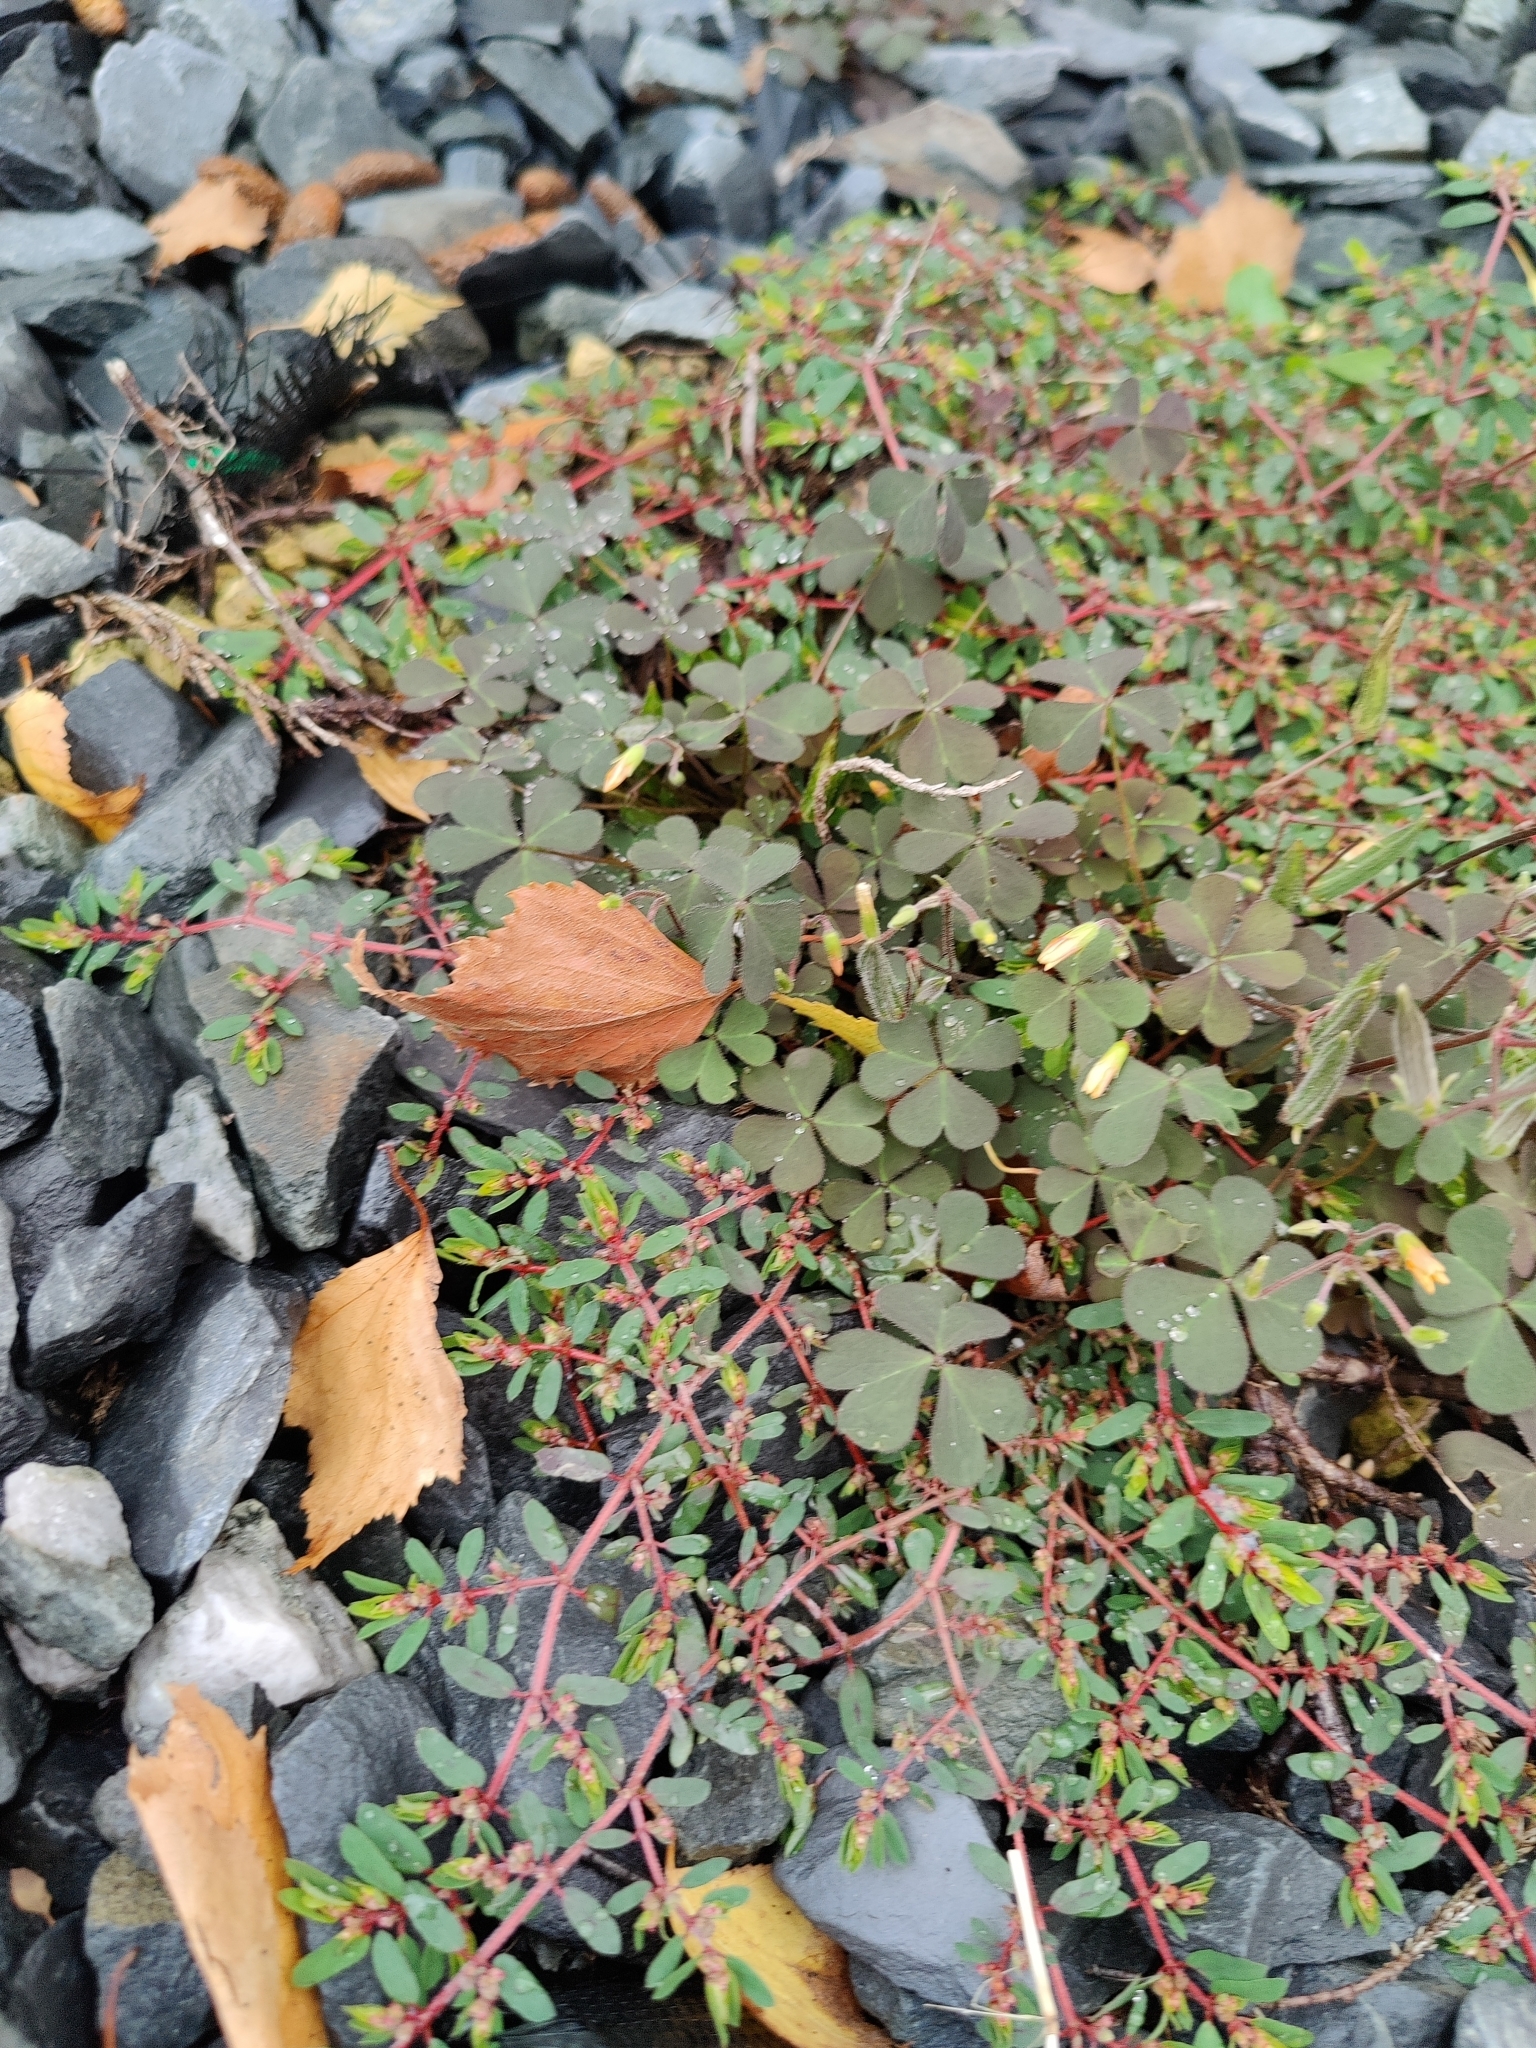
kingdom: Plantae
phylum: Tracheophyta
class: Magnoliopsida
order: Malpighiales
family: Euphorbiaceae
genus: Euphorbia
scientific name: Euphorbia maculata
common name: Spotted spurge
